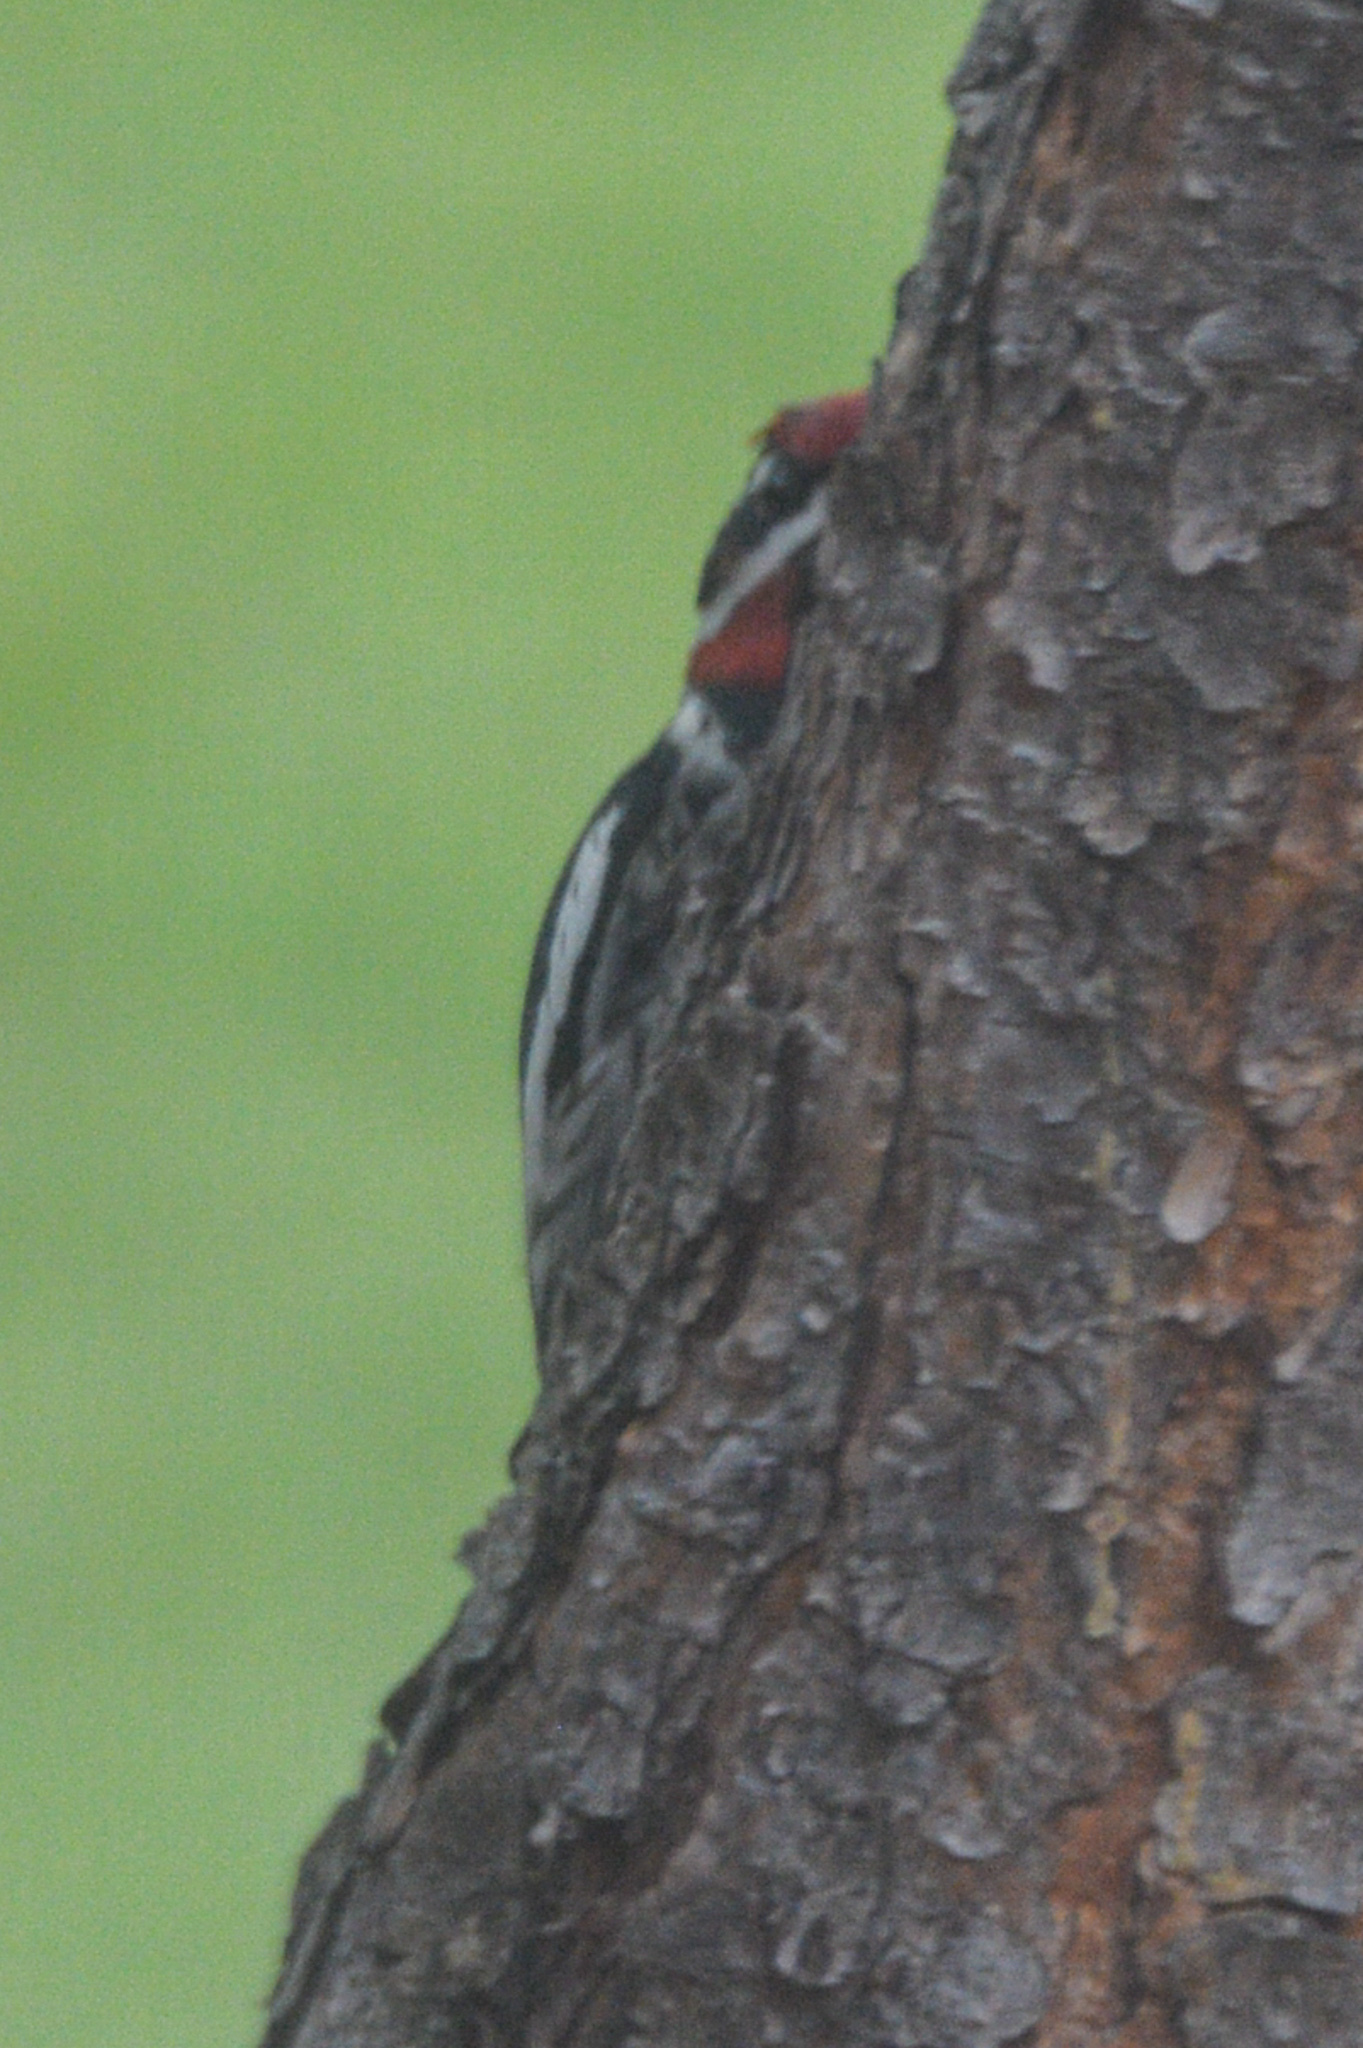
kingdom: Animalia
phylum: Chordata
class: Aves
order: Piciformes
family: Picidae
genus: Sphyrapicus
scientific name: Sphyrapicus nuchalis
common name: Red-naped sapsucker
